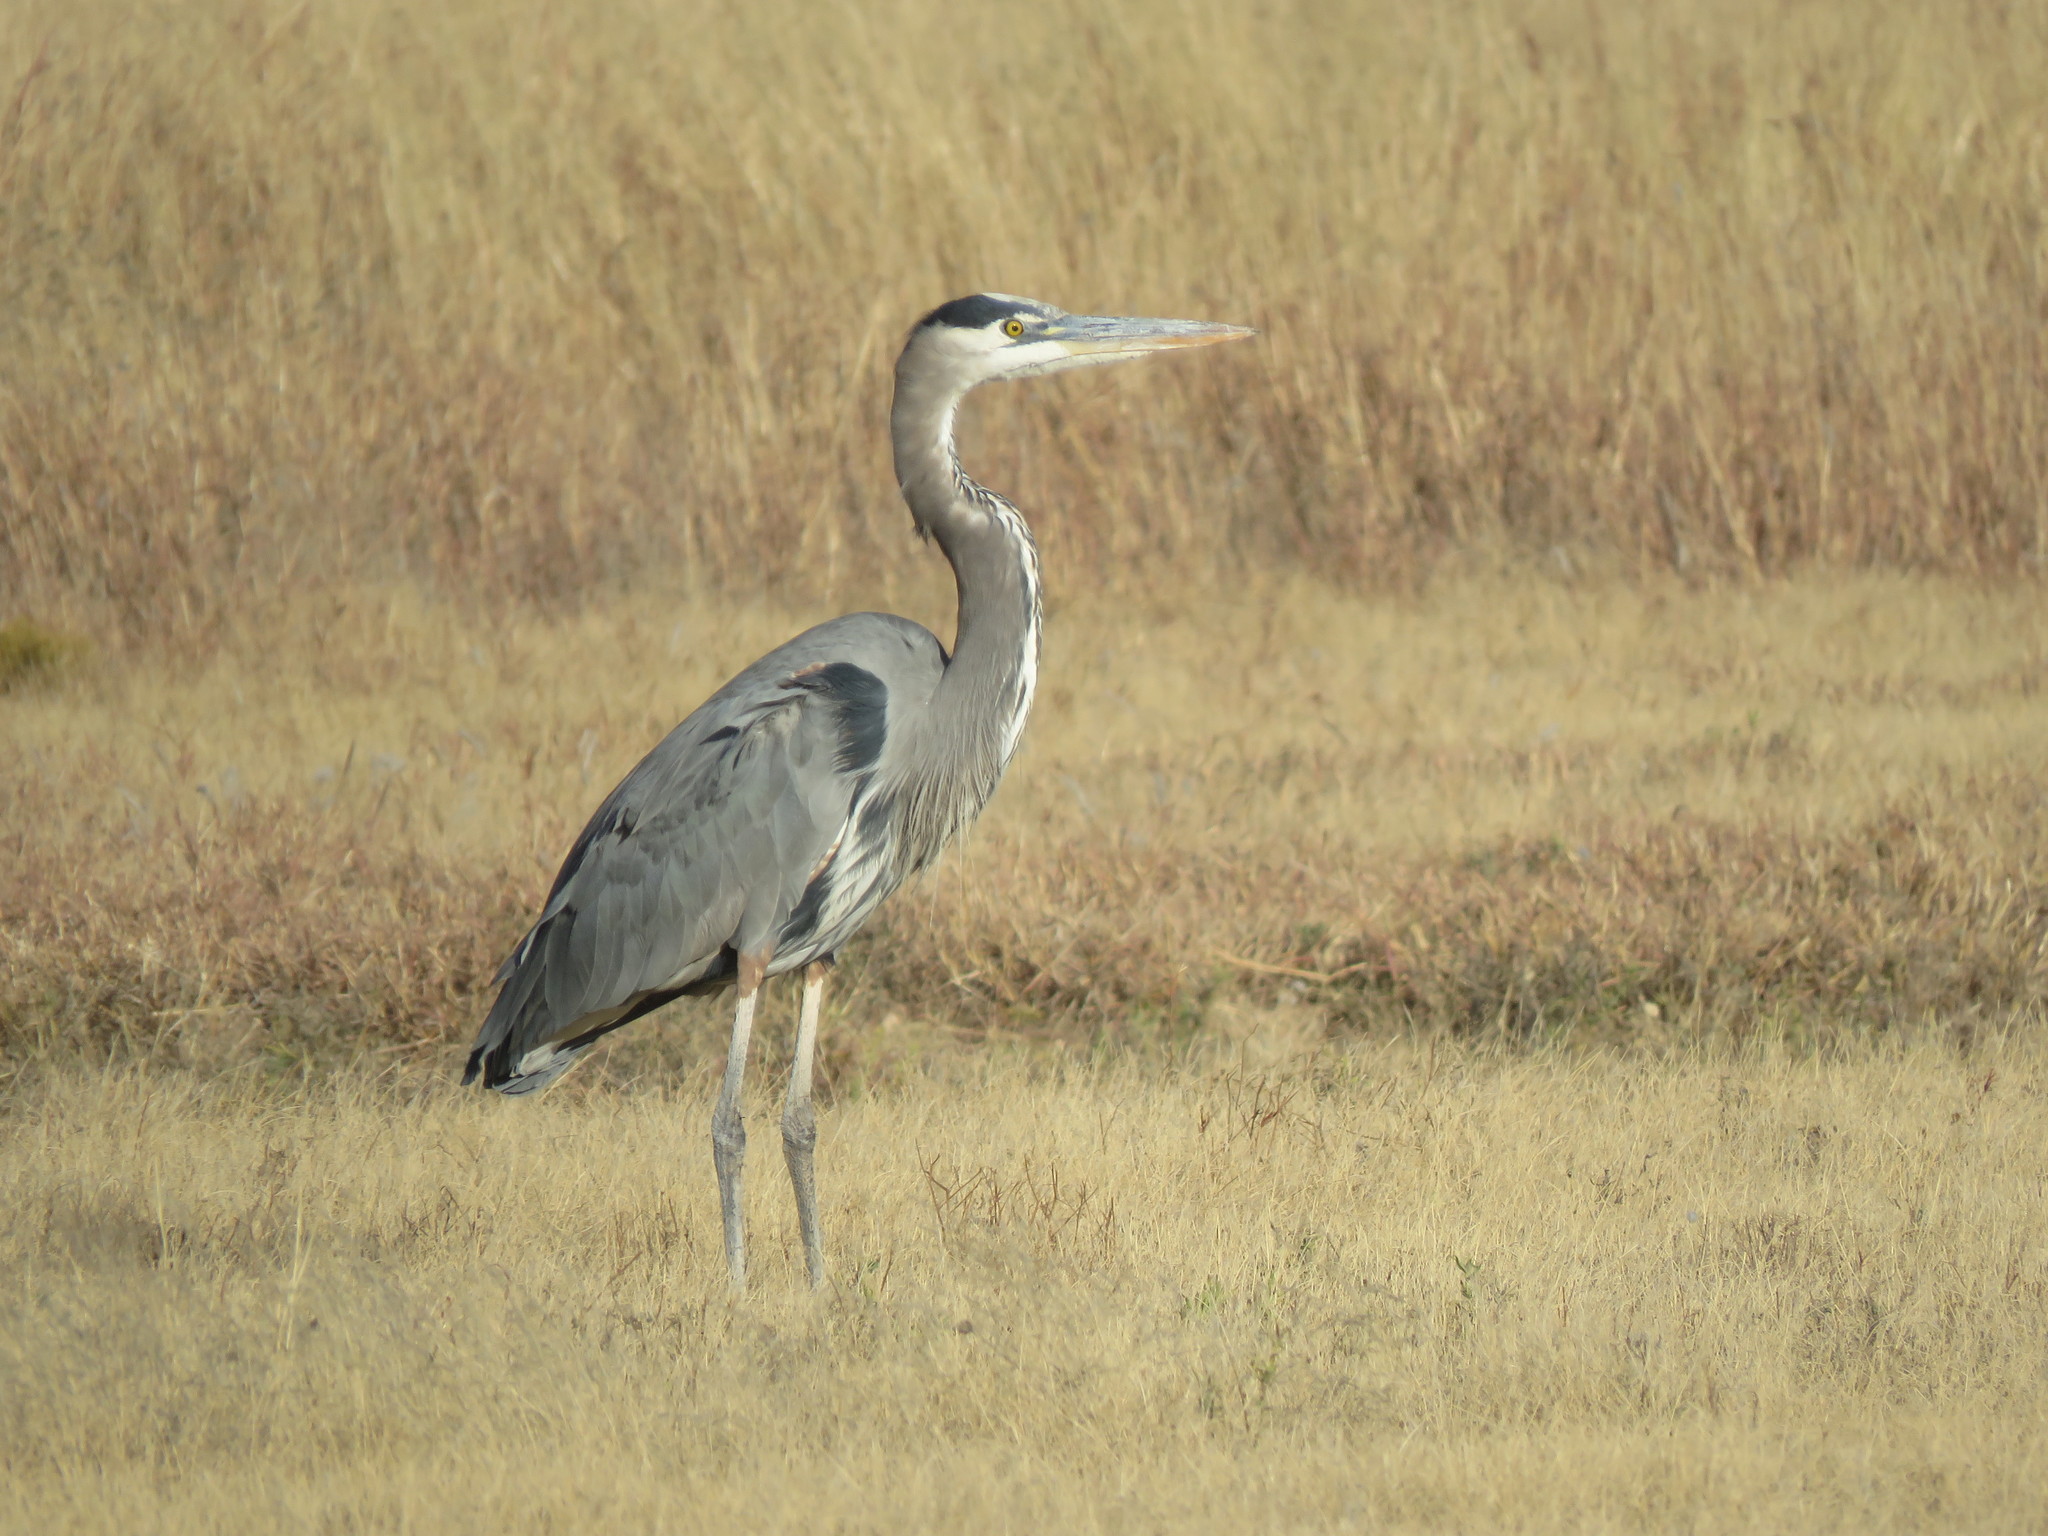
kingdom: Animalia
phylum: Chordata
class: Aves
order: Pelecaniformes
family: Ardeidae
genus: Ardea
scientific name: Ardea herodias
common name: Great blue heron
